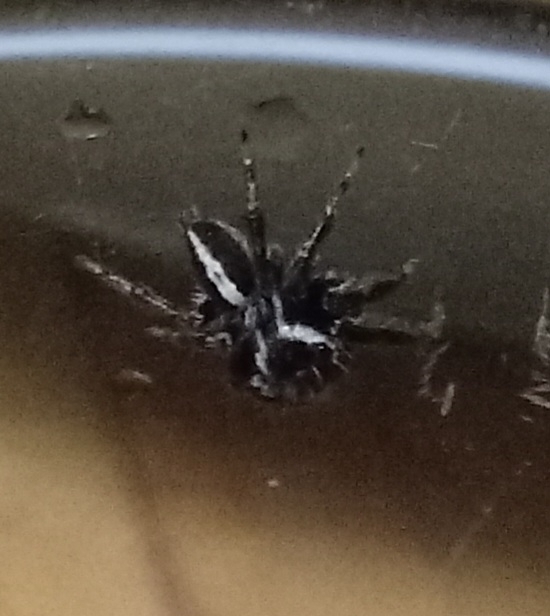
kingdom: Animalia
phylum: Arthropoda
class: Arachnida
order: Araneae
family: Salticidae
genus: Evarcha
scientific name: Evarcha denticulata
